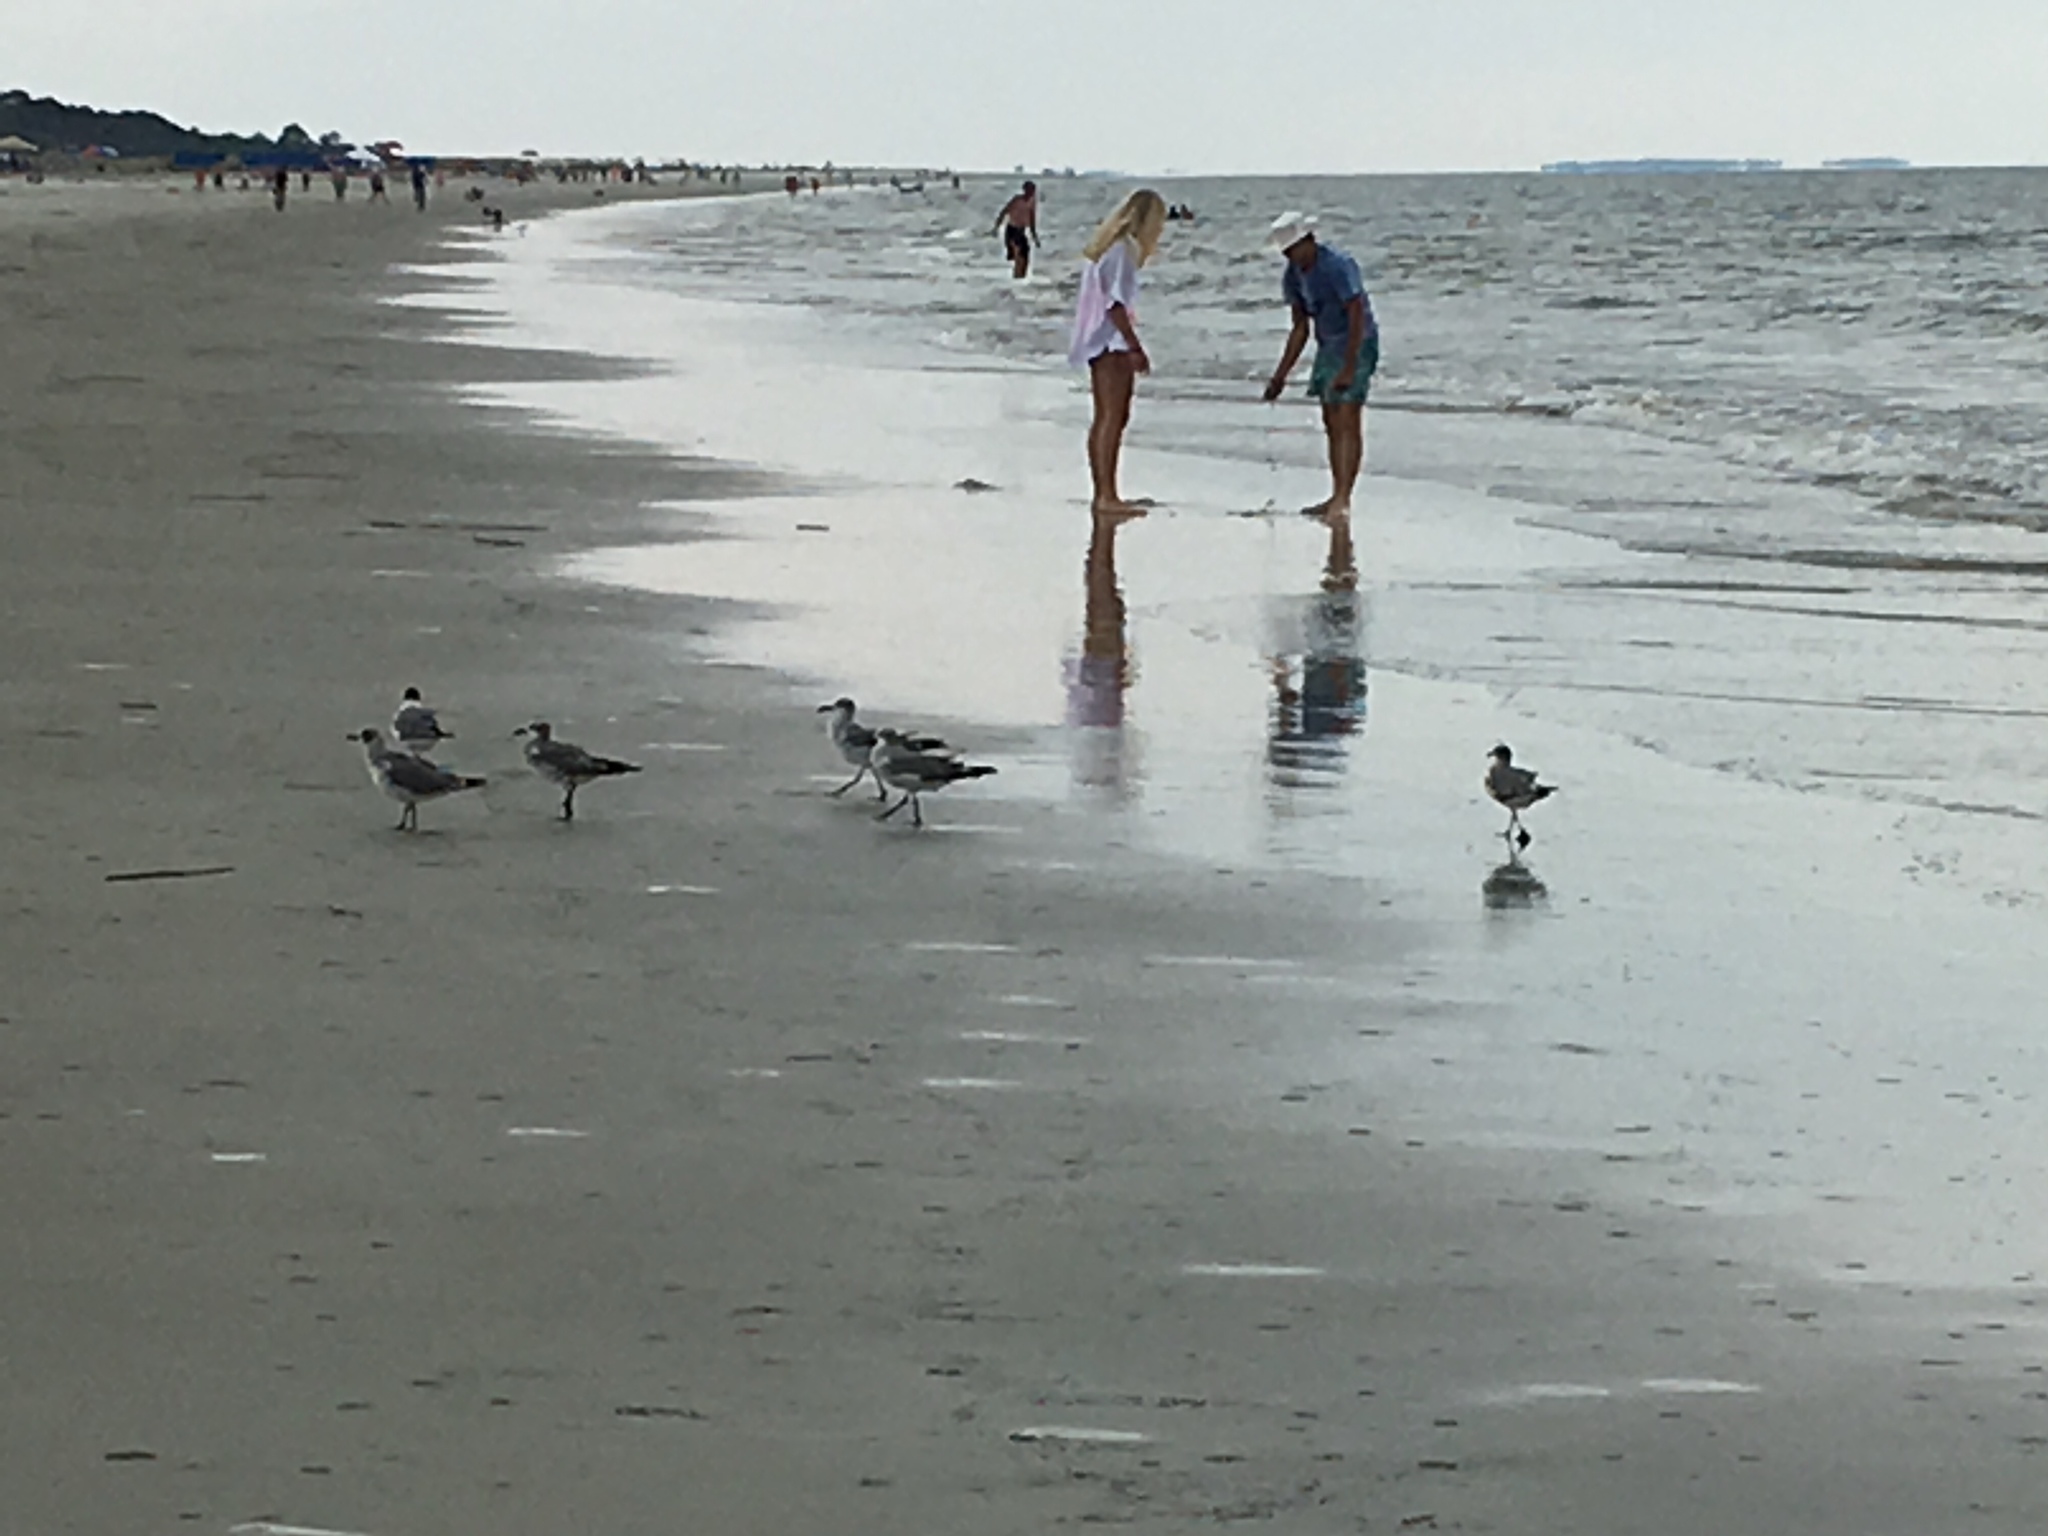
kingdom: Animalia
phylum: Chordata
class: Aves
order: Charadriiformes
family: Laridae
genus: Leucophaeus
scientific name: Leucophaeus atricilla
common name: Laughing gull
